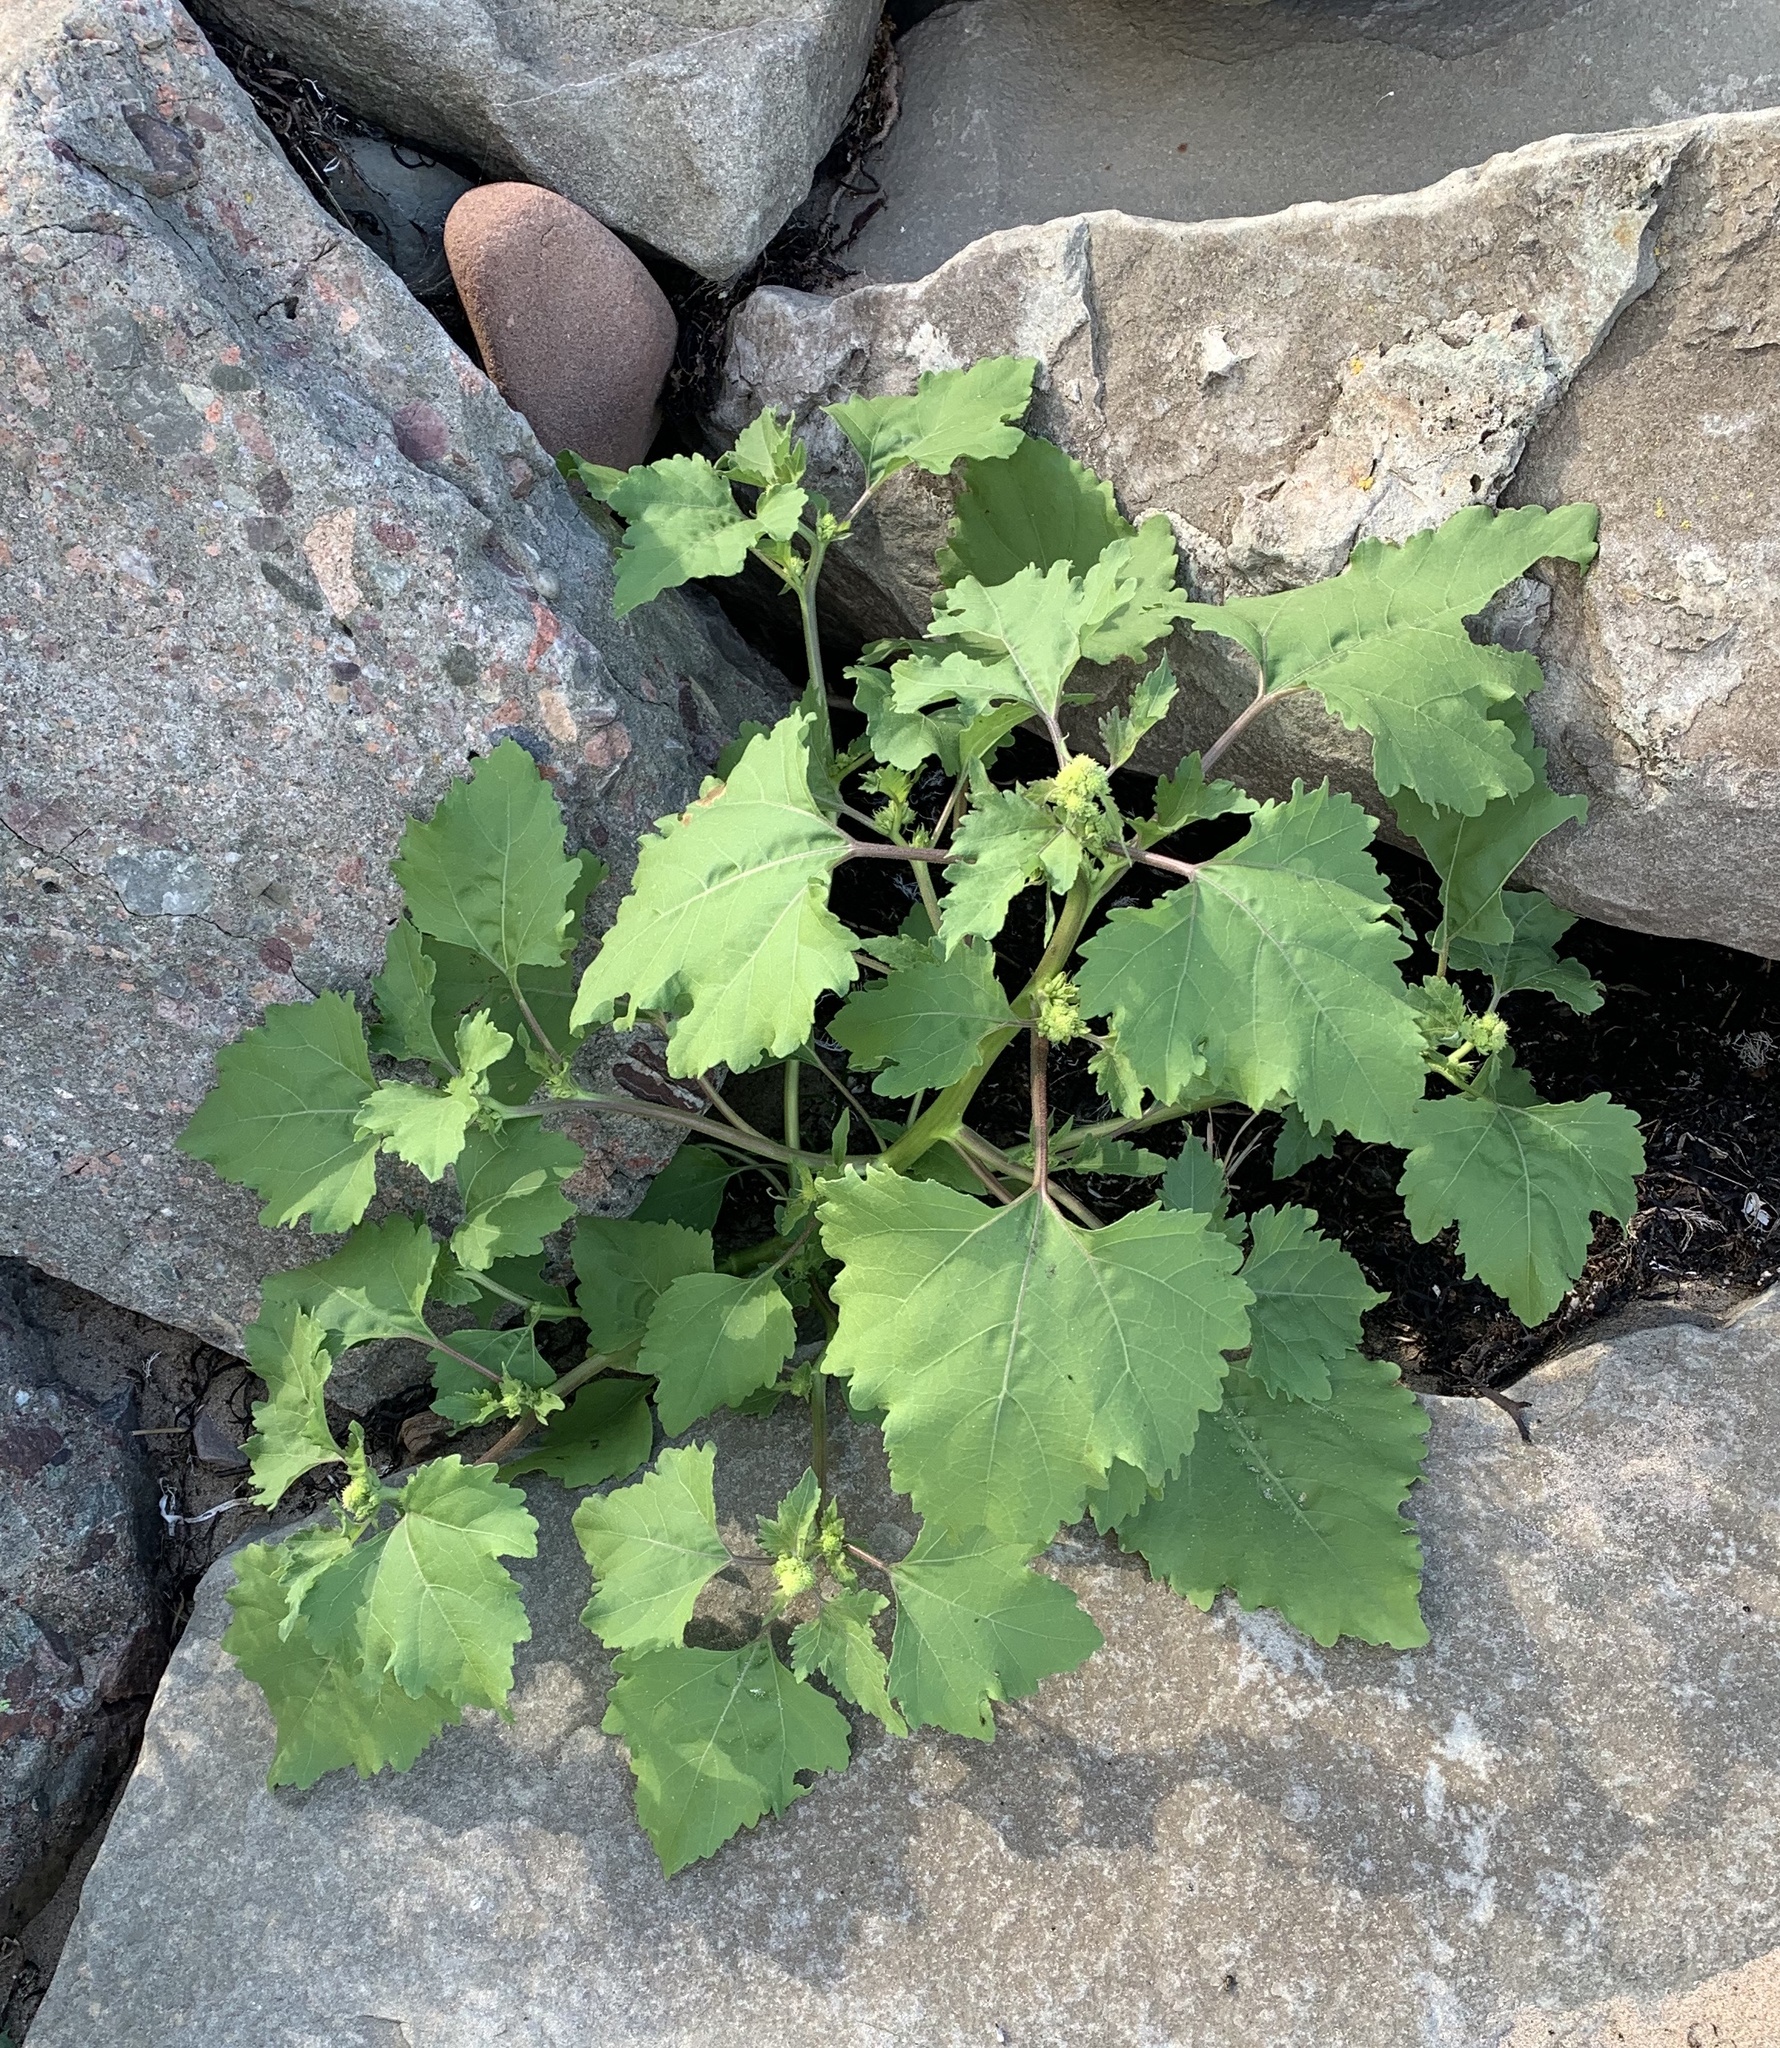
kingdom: Plantae
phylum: Tracheophyta
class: Magnoliopsida
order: Asterales
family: Asteraceae
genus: Xanthium
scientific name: Xanthium strumarium
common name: Rough cocklebur
